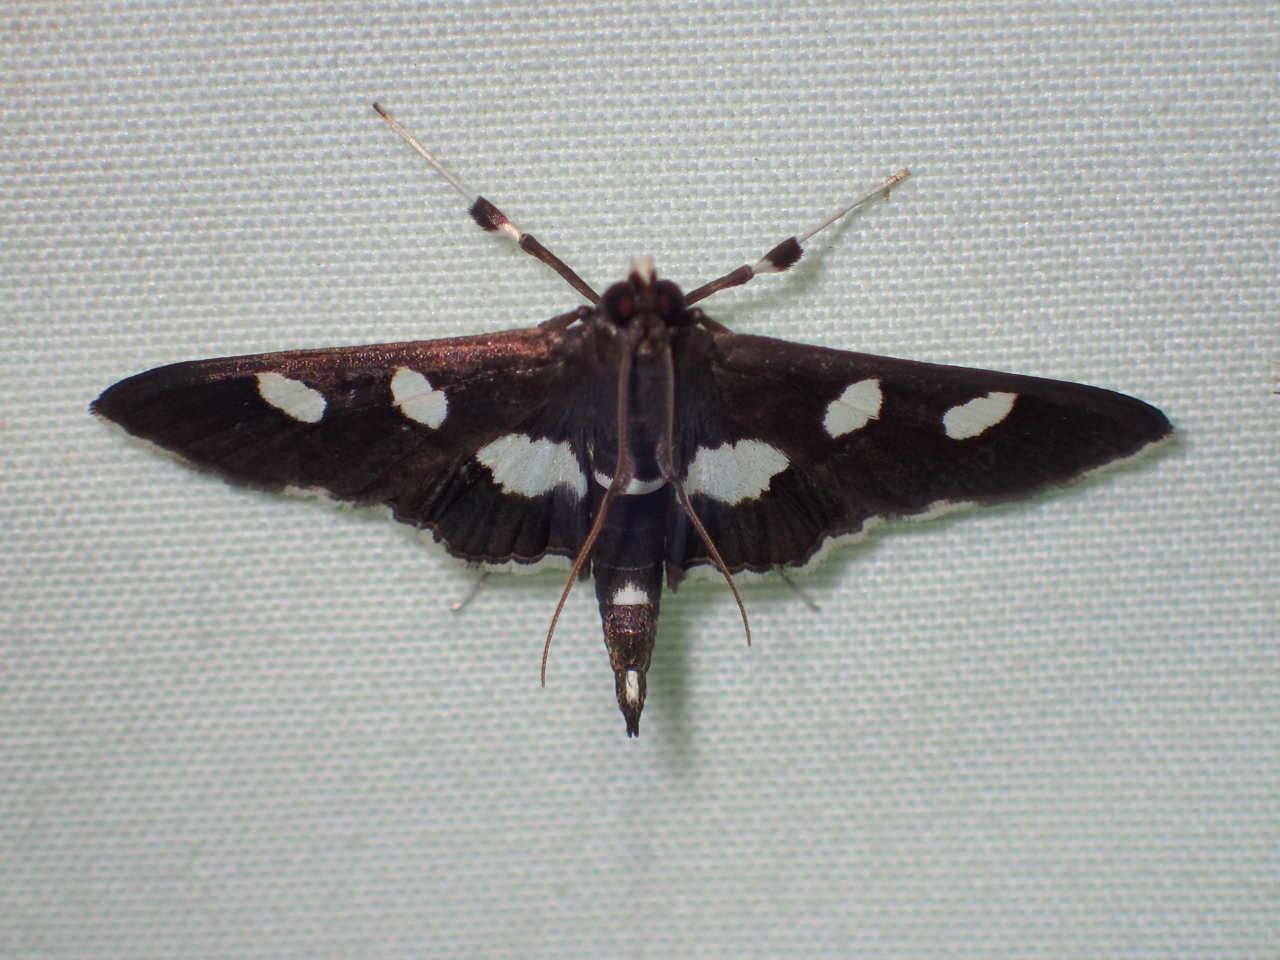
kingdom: Animalia
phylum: Arthropoda
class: Insecta
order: Lepidoptera
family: Crambidae
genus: Desmia
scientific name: Desmia
